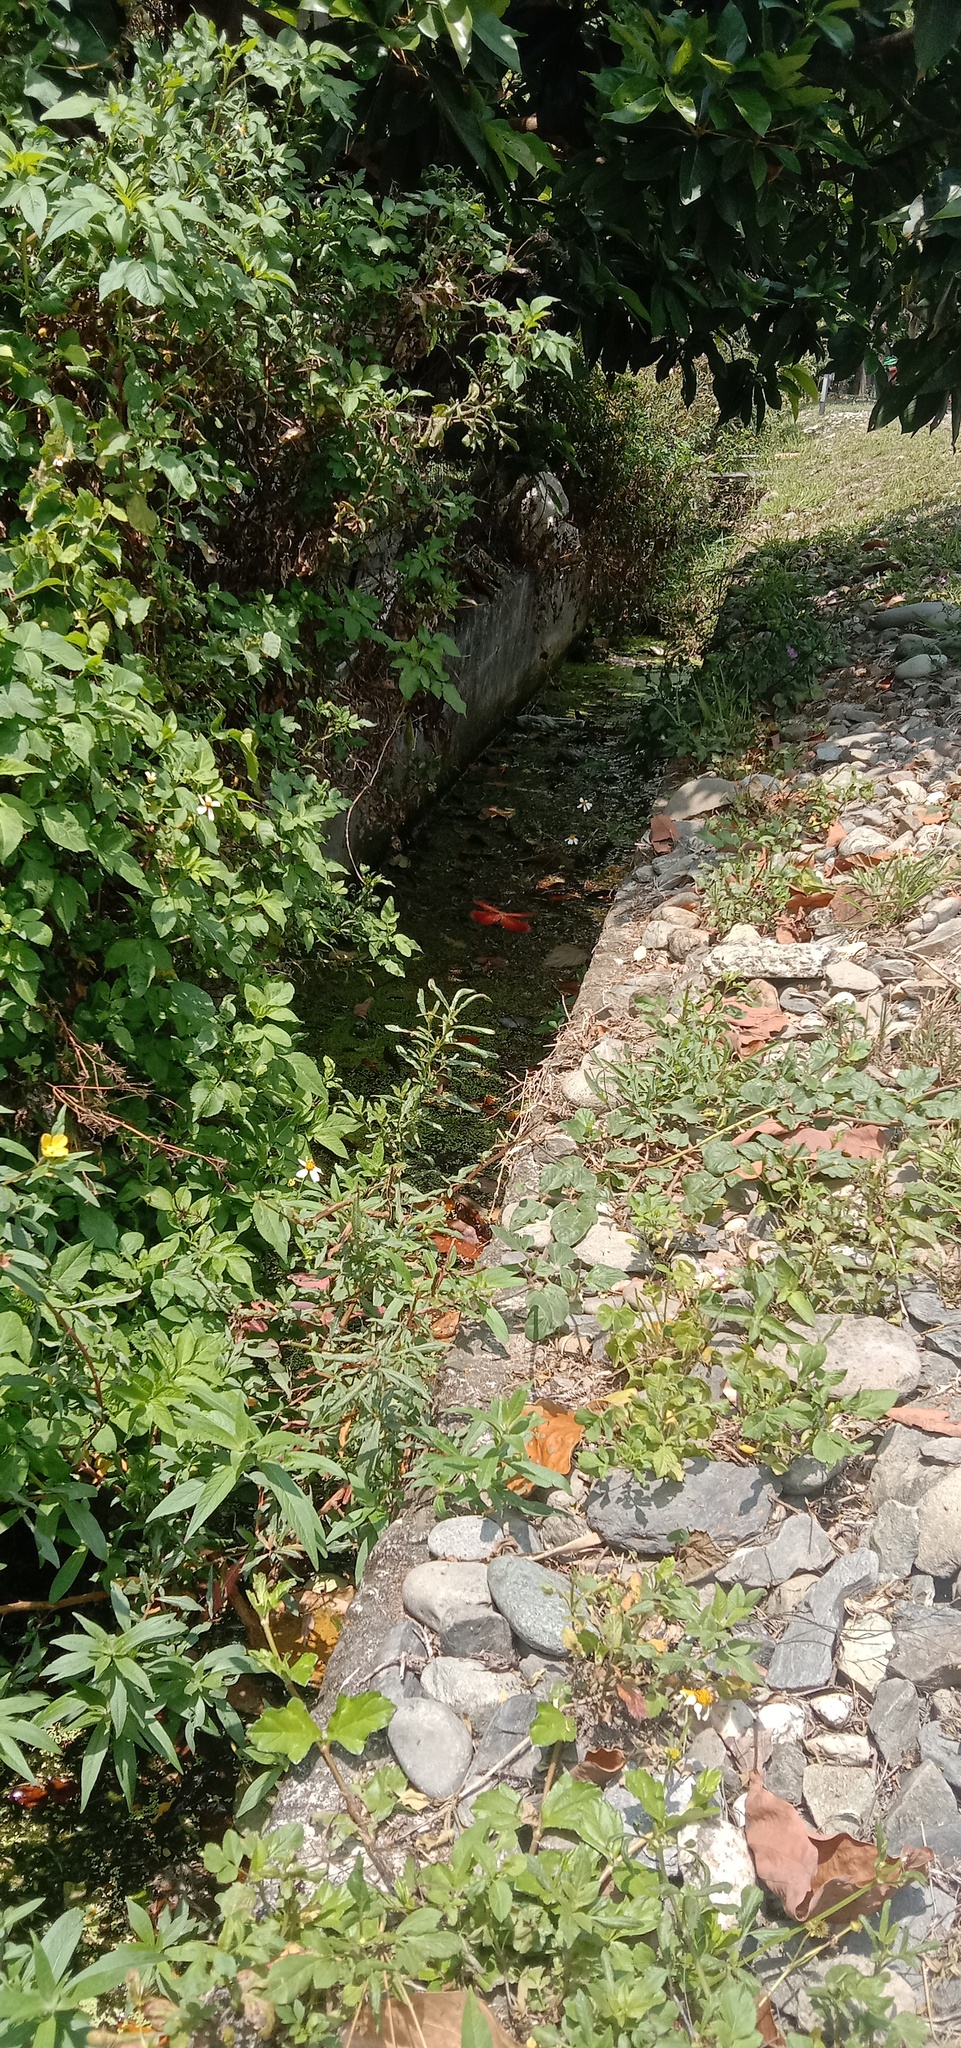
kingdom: Animalia
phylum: Arthropoda
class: Insecta
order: Odonata
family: Libellulidae
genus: Neurothemis
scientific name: Neurothemis taiwanensis
